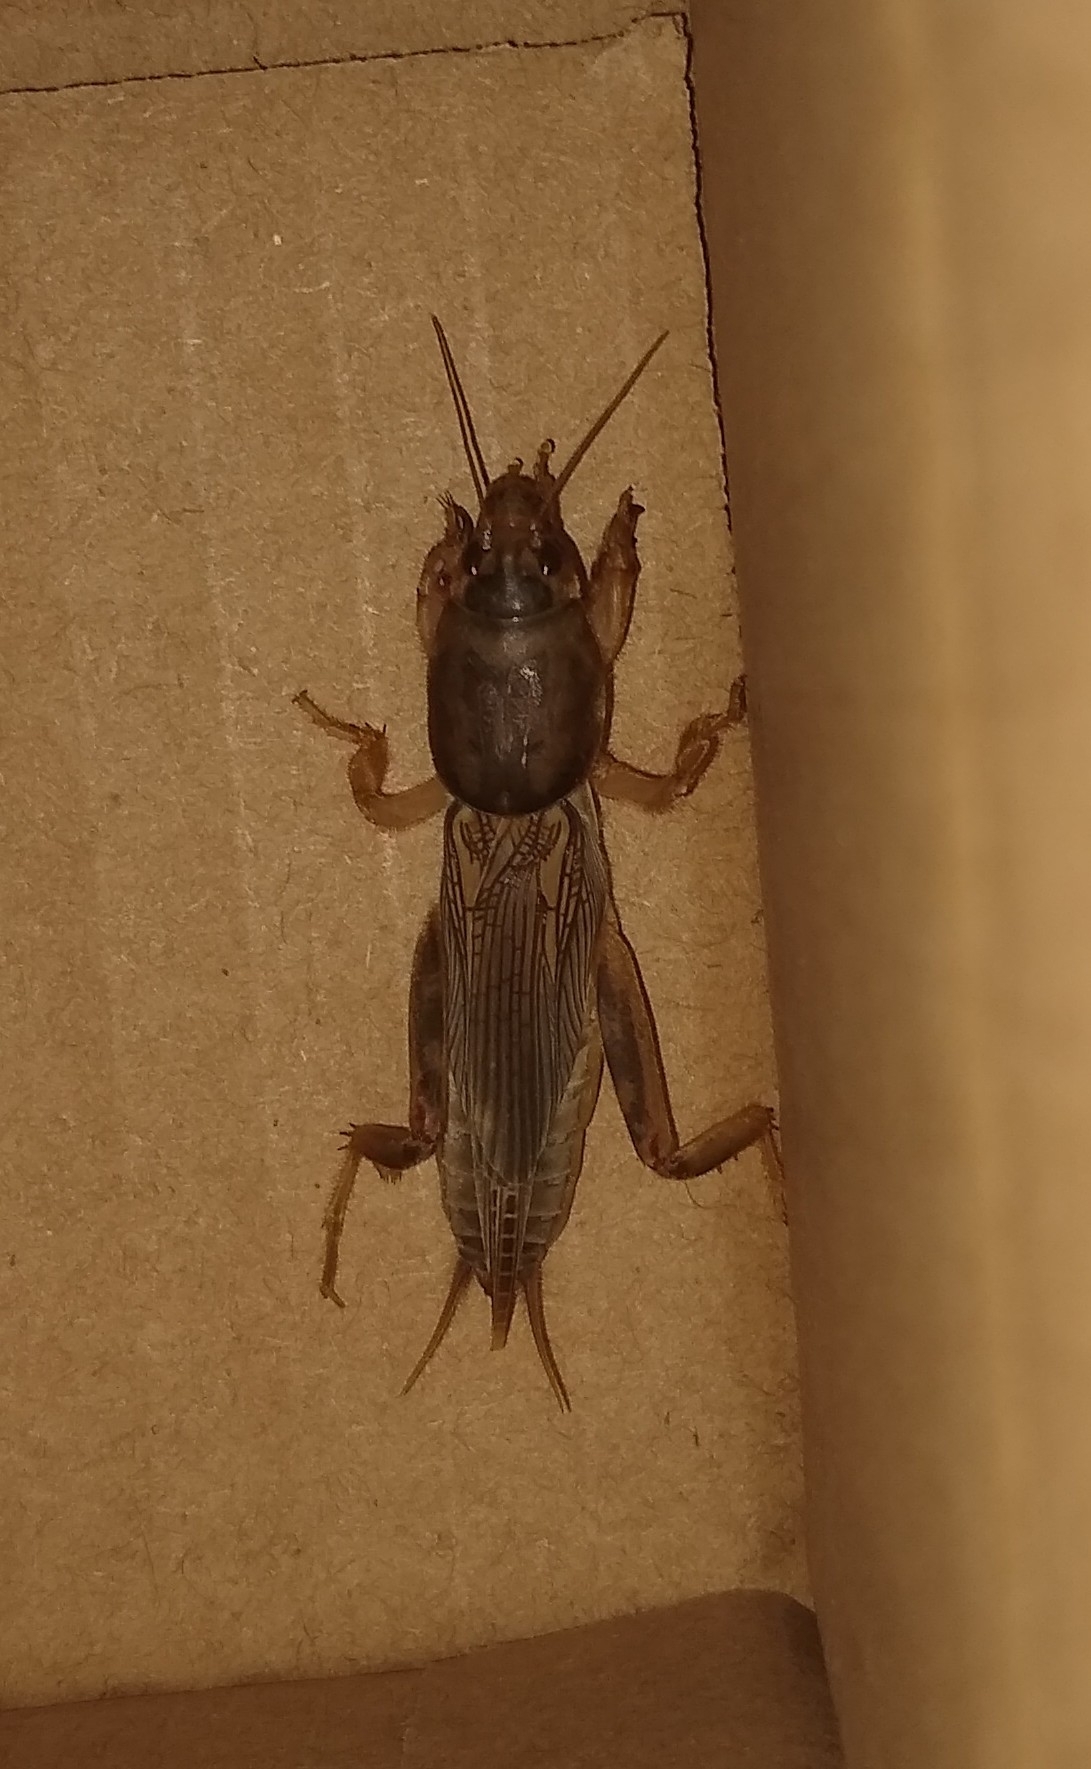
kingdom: Animalia
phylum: Arthropoda
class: Insecta
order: Orthoptera
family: Gryllotalpidae
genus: Neoscapteriscus
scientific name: Neoscapteriscus vicinus
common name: Tawny mole cricket
